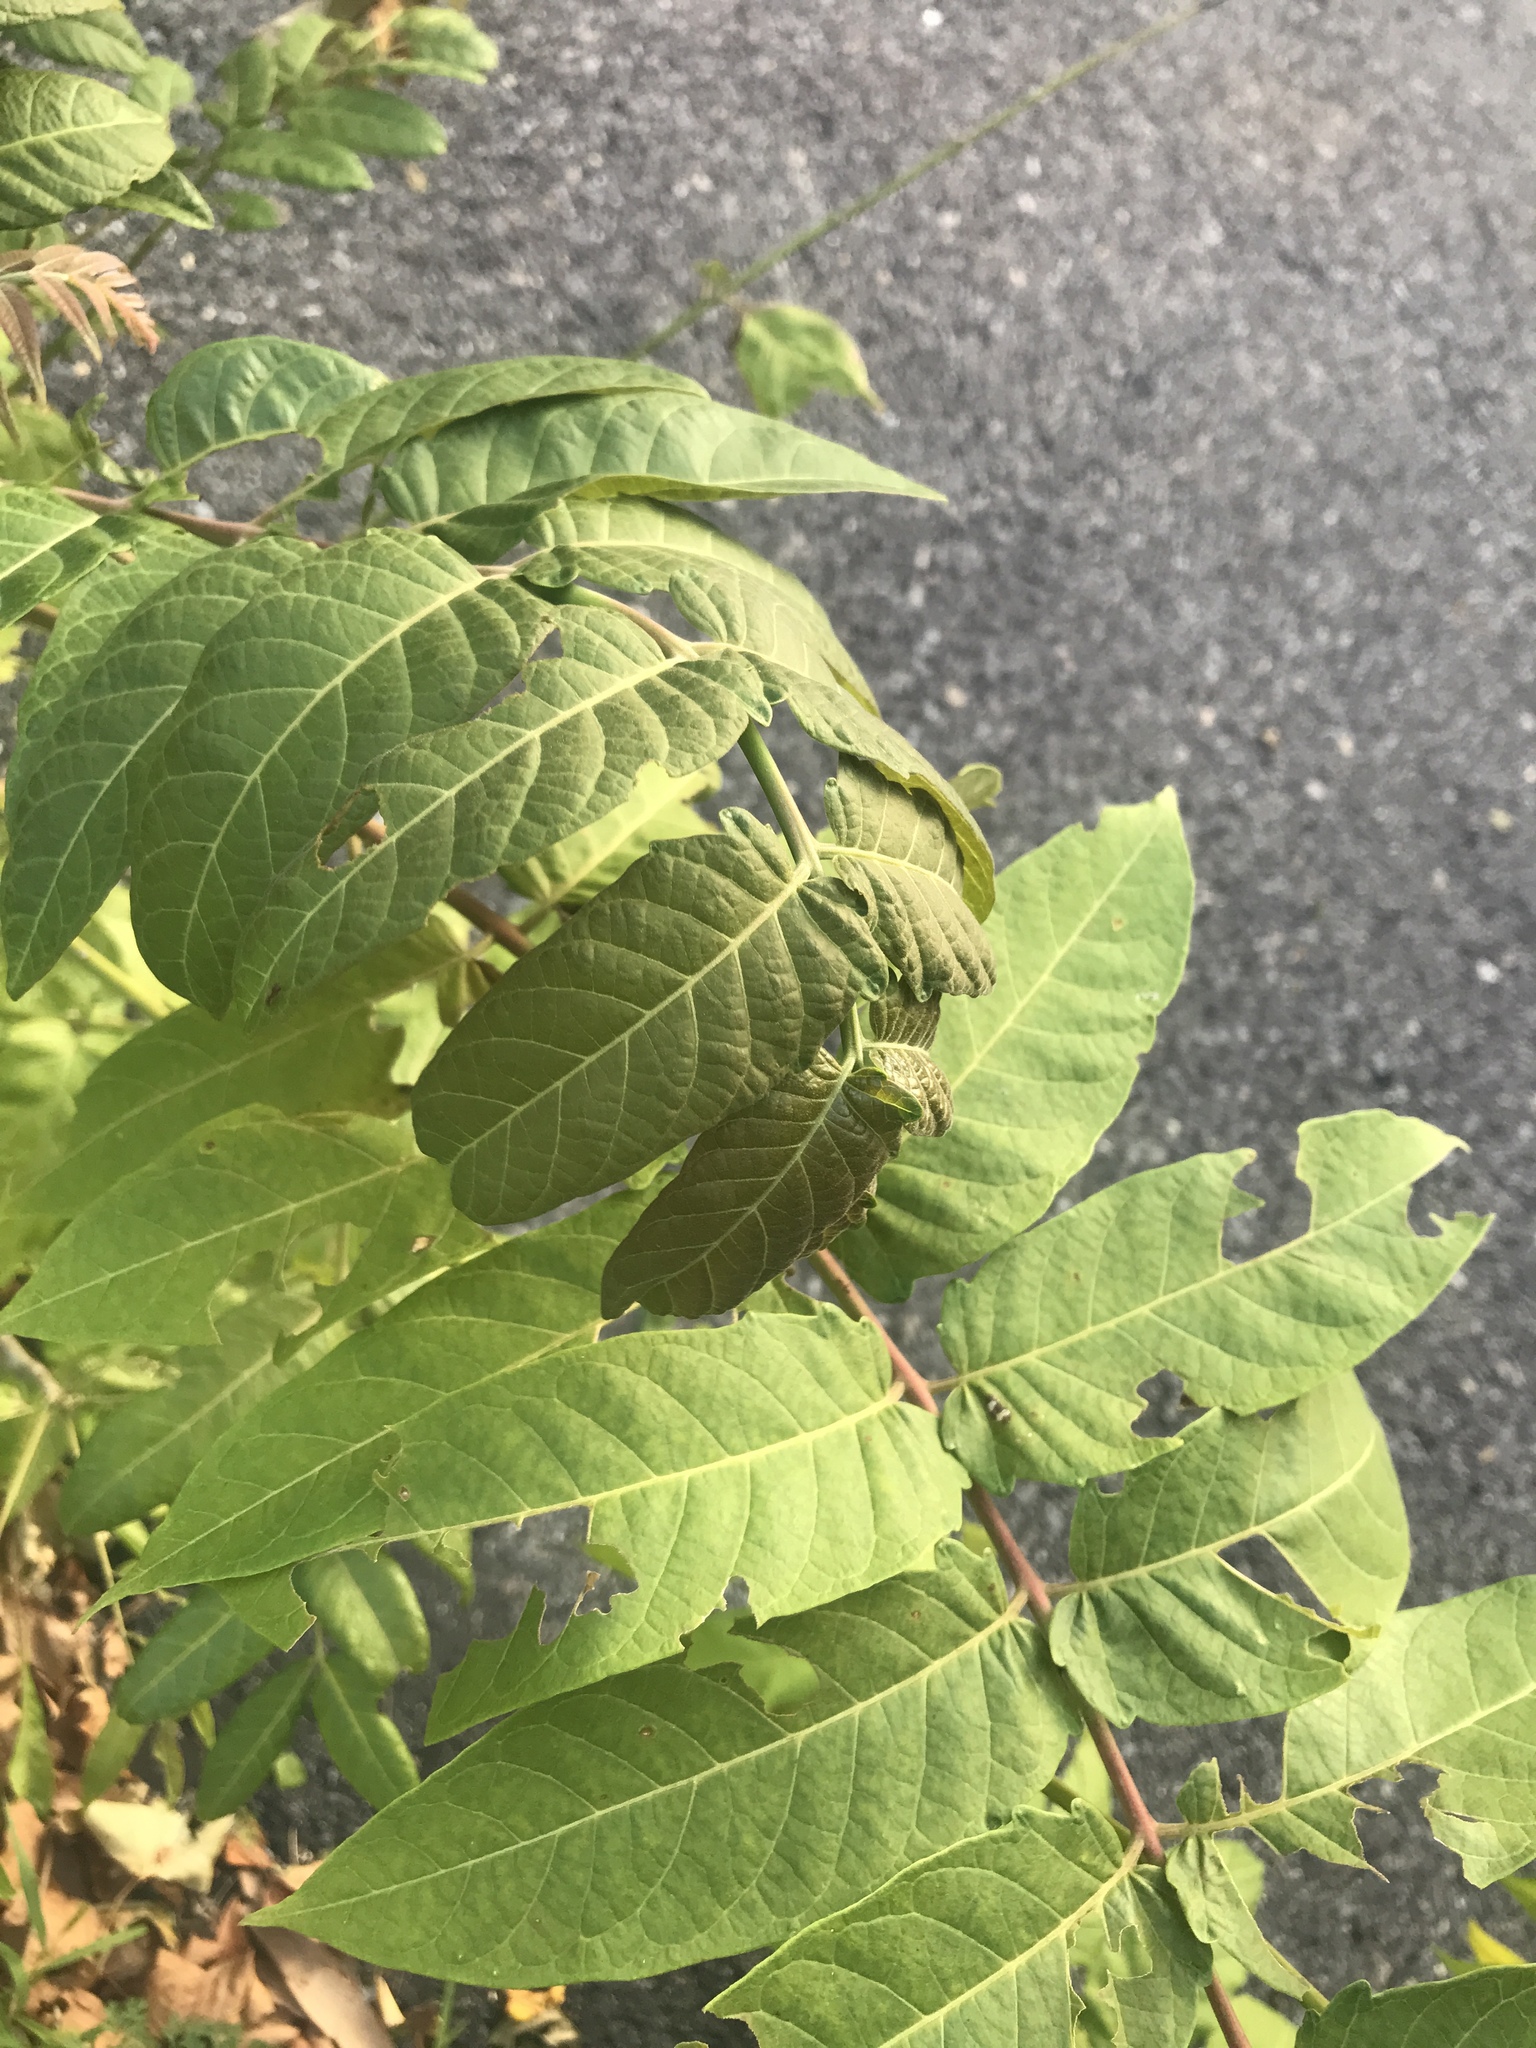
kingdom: Plantae
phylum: Tracheophyta
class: Magnoliopsida
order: Sapindales
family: Simaroubaceae
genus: Ailanthus
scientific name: Ailanthus altissima
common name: Tree-of-heaven
